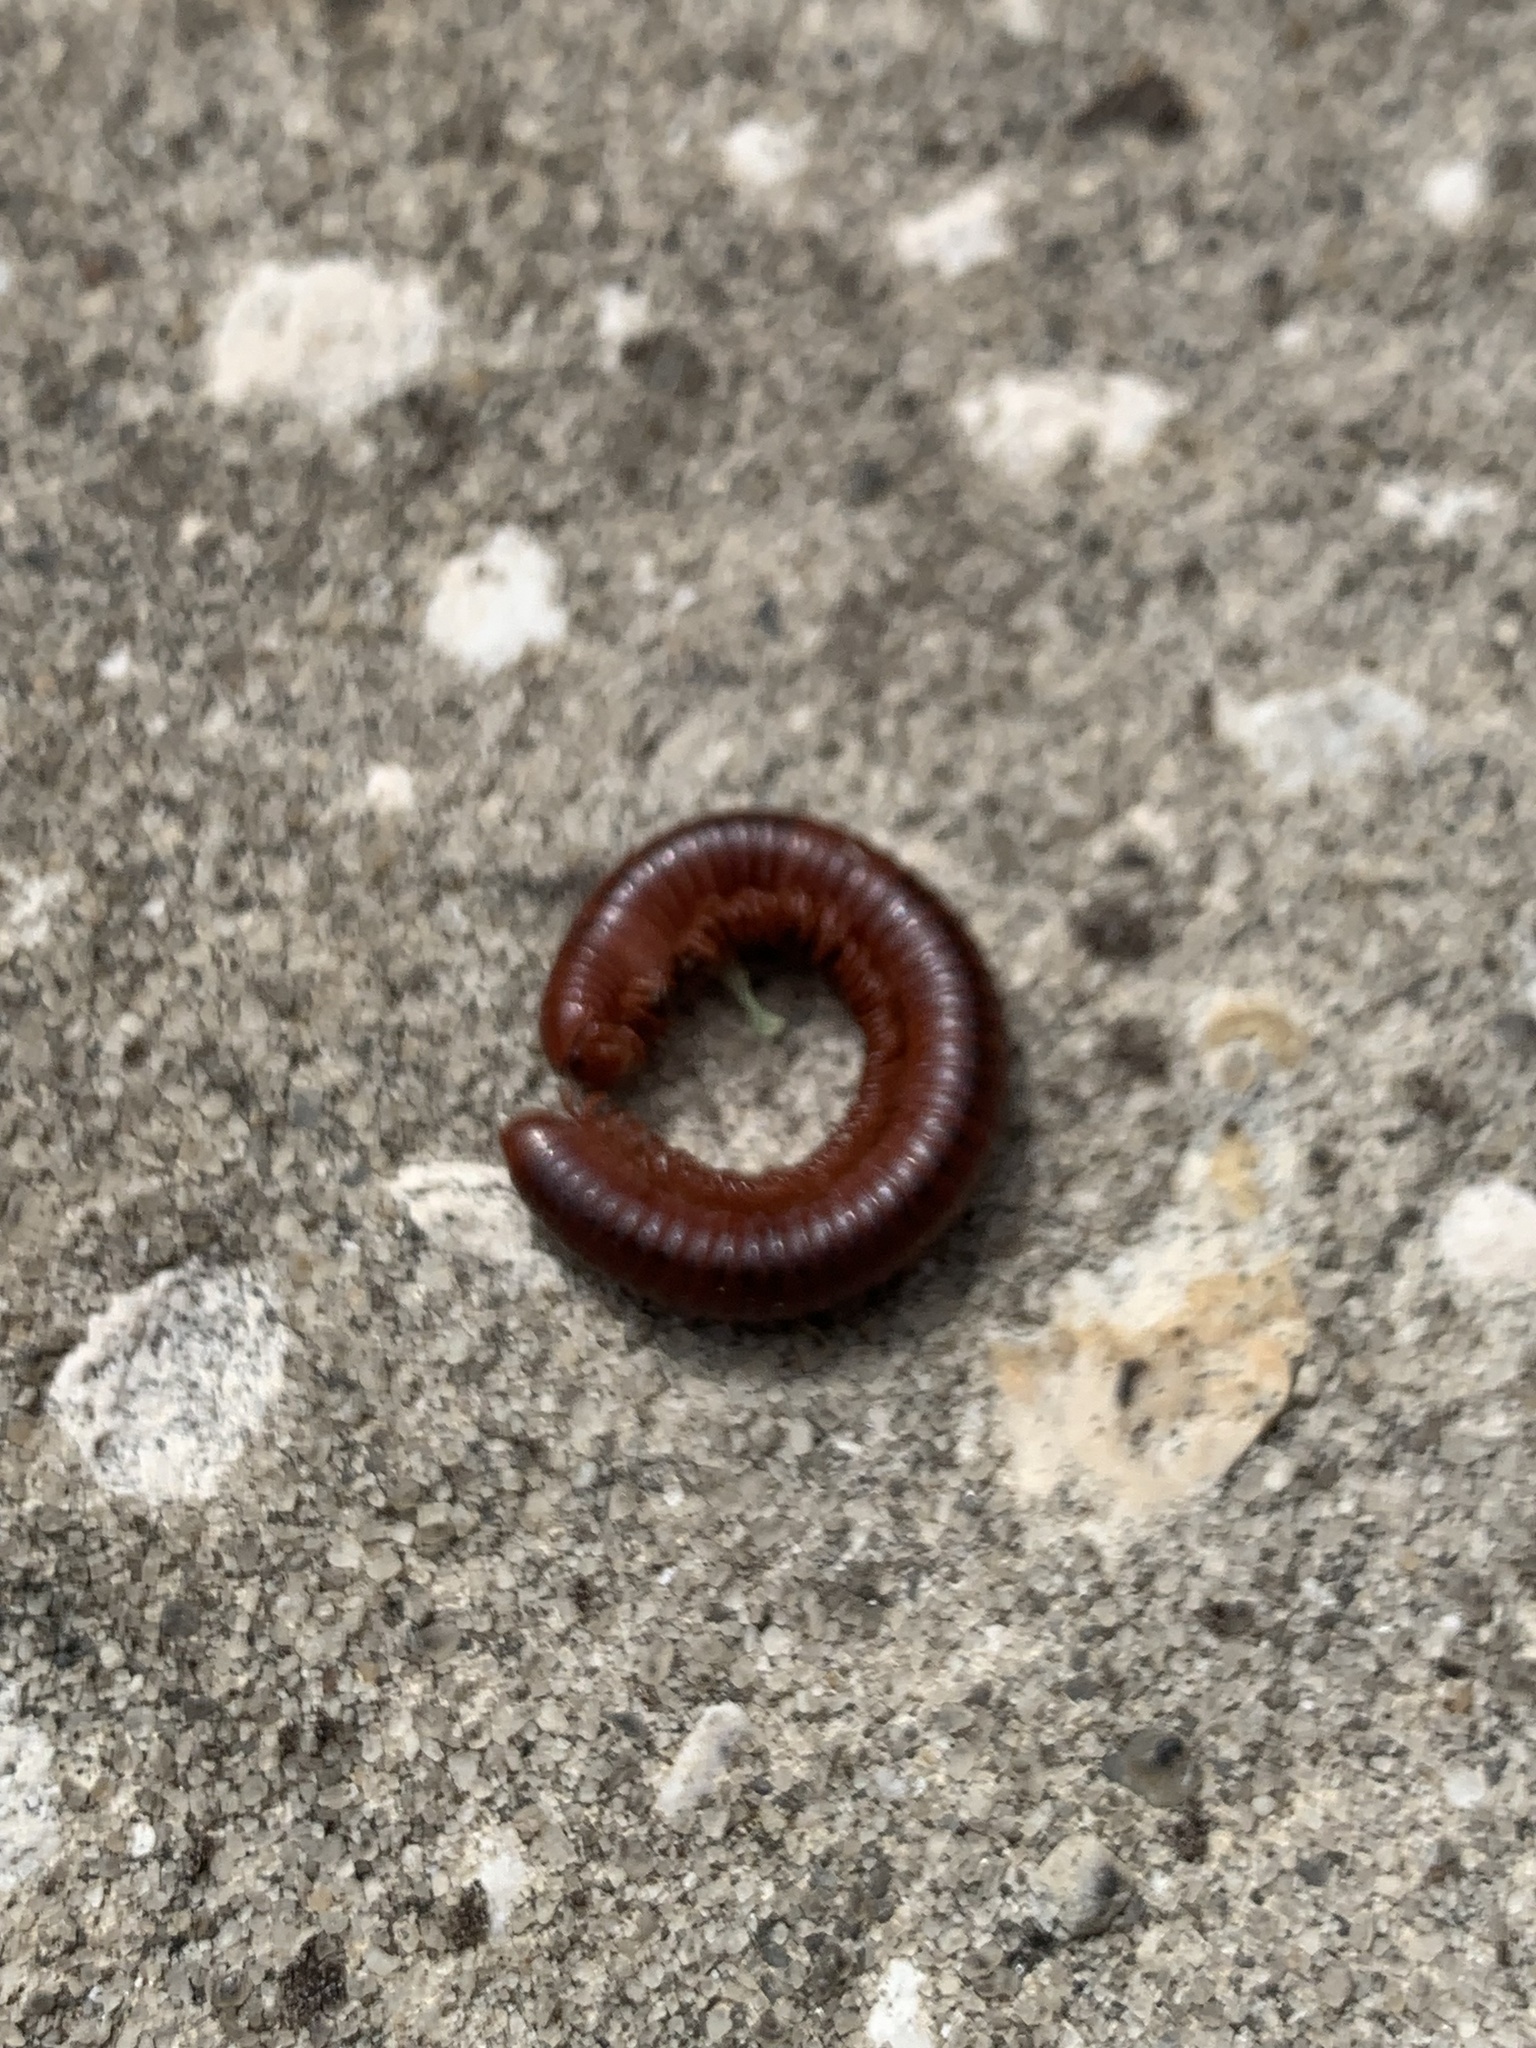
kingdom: Animalia
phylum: Arthropoda
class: Diplopoda
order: Spirobolida
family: Pachybolidae
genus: Trigoniulus
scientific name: Trigoniulus corallinus
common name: Millipede
